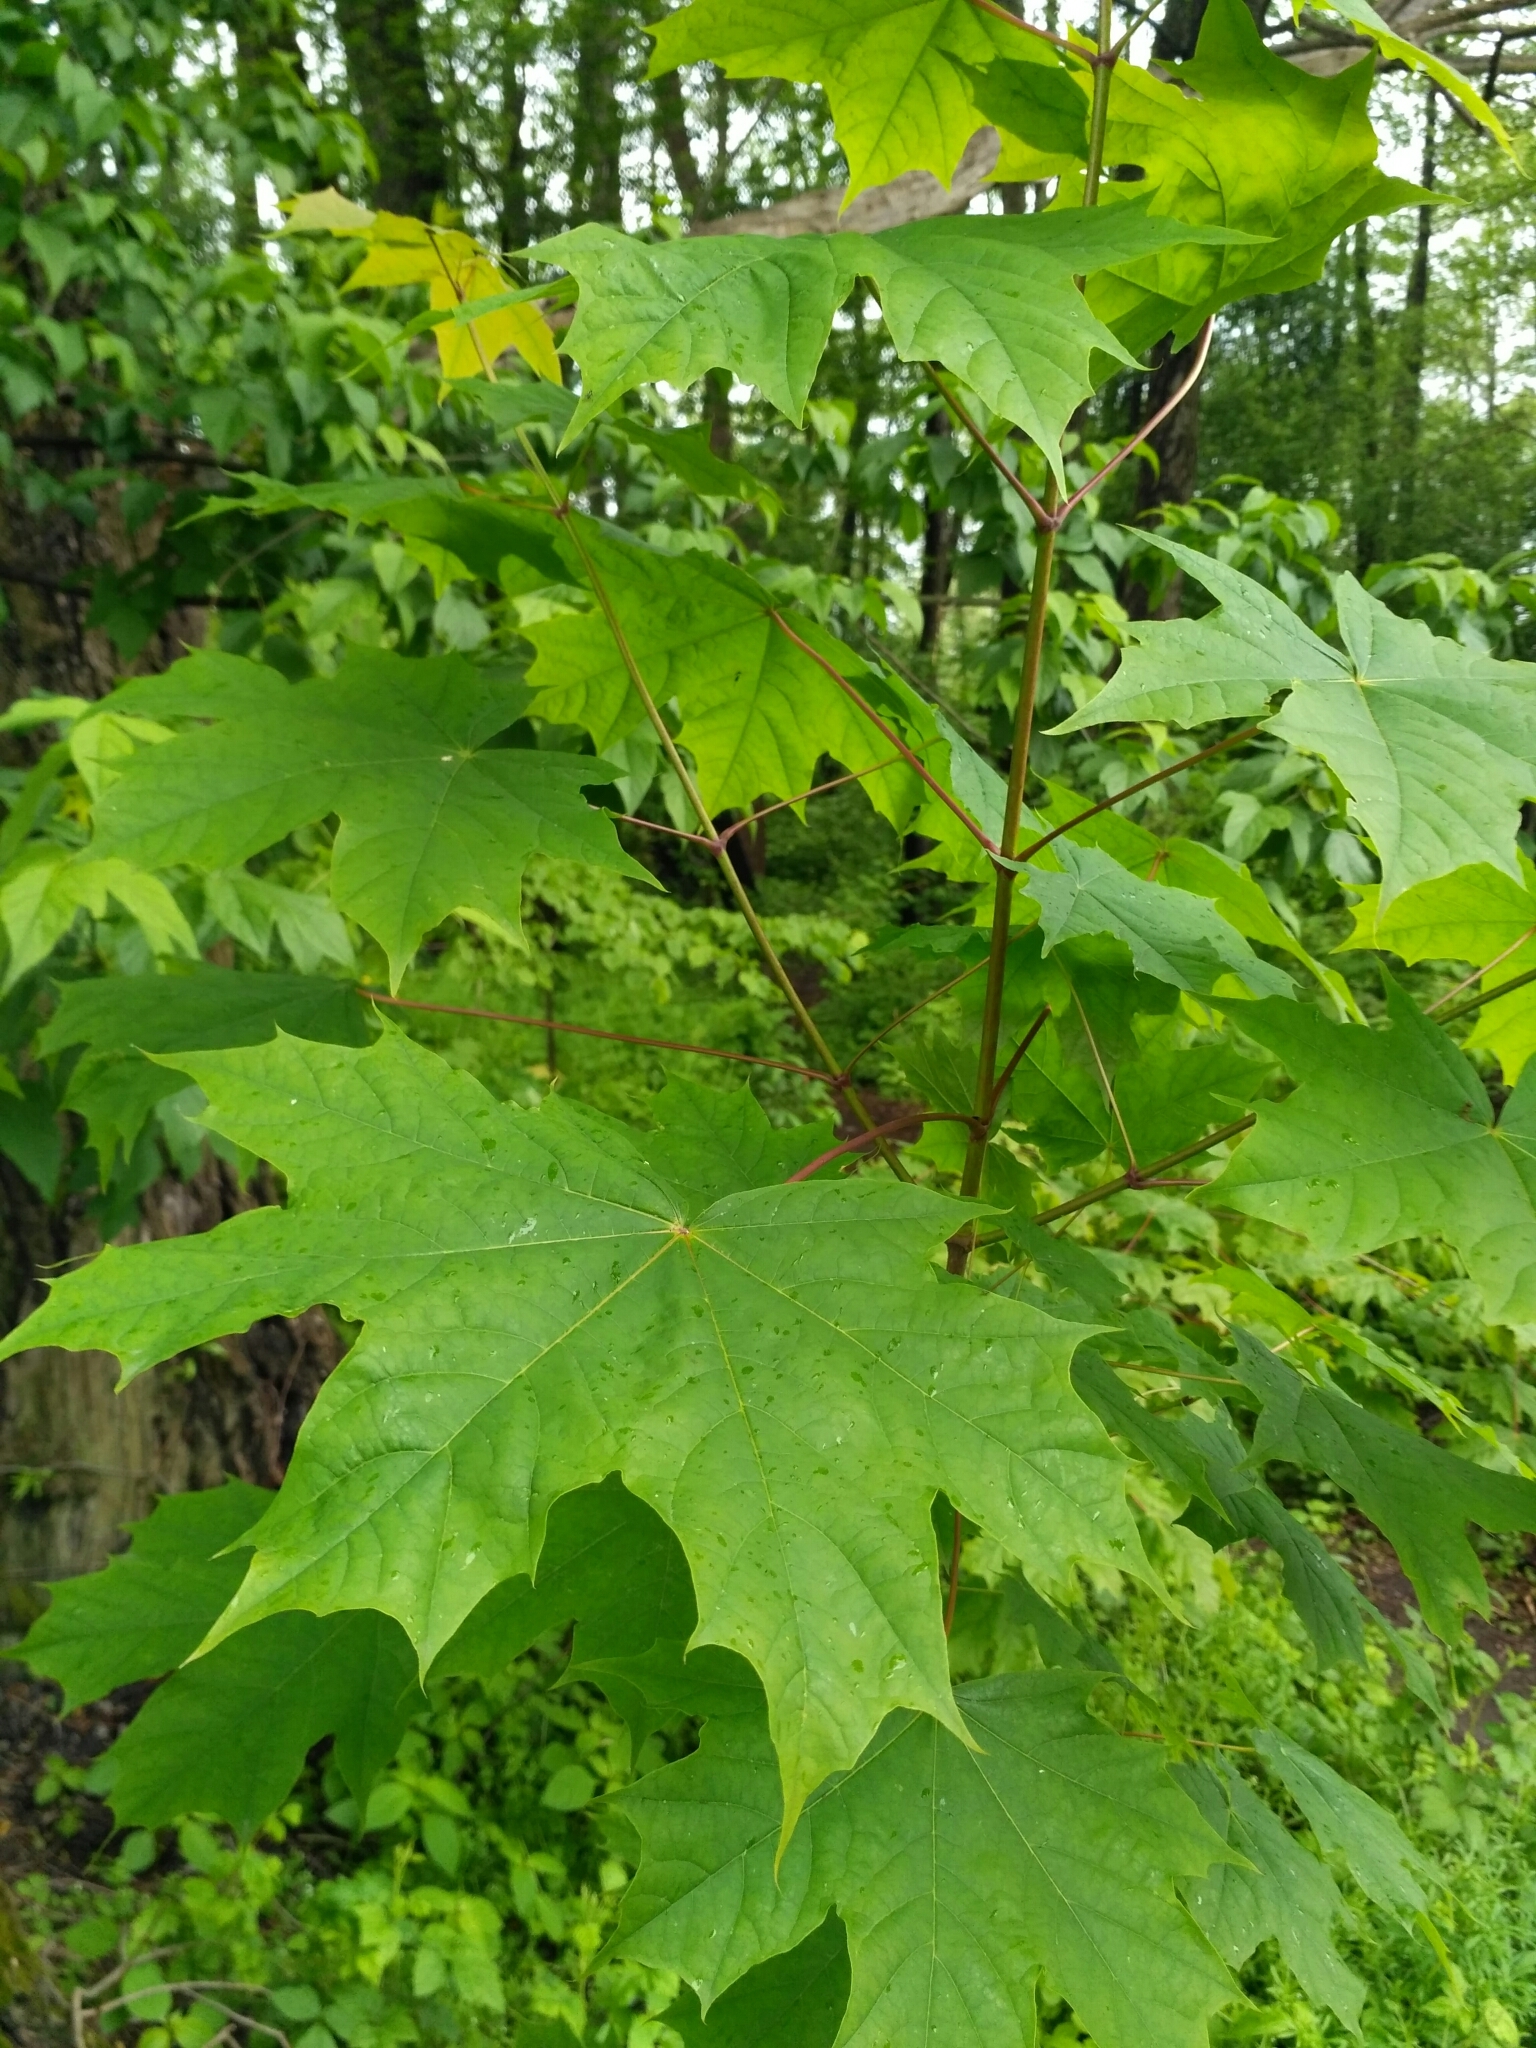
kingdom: Plantae
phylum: Tracheophyta
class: Magnoliopsida
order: Sapindales
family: Sapindaceae
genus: Acer
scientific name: Acer platanoides
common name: Norway maple
